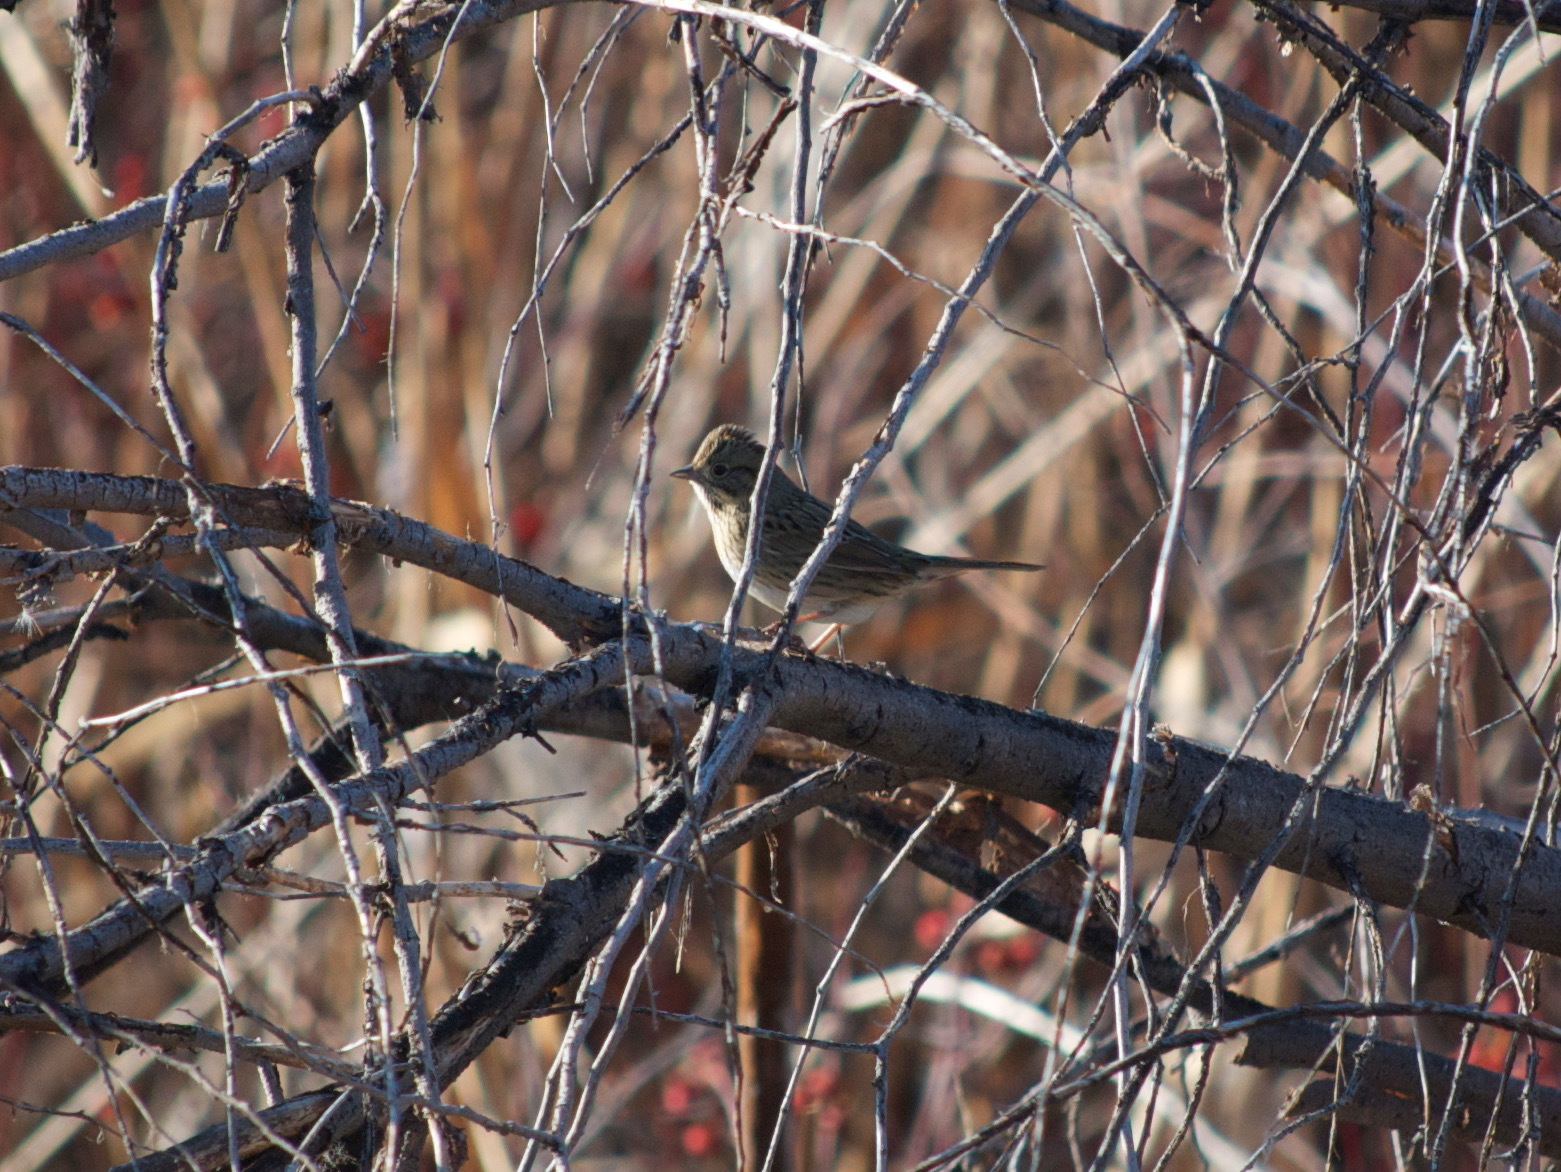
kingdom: Animalia
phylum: Chordata
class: Aves
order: Passeriformes
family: Passerellidae
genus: Melospiza
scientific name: Melospiza lincolnii
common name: Lincoln's sparrow
